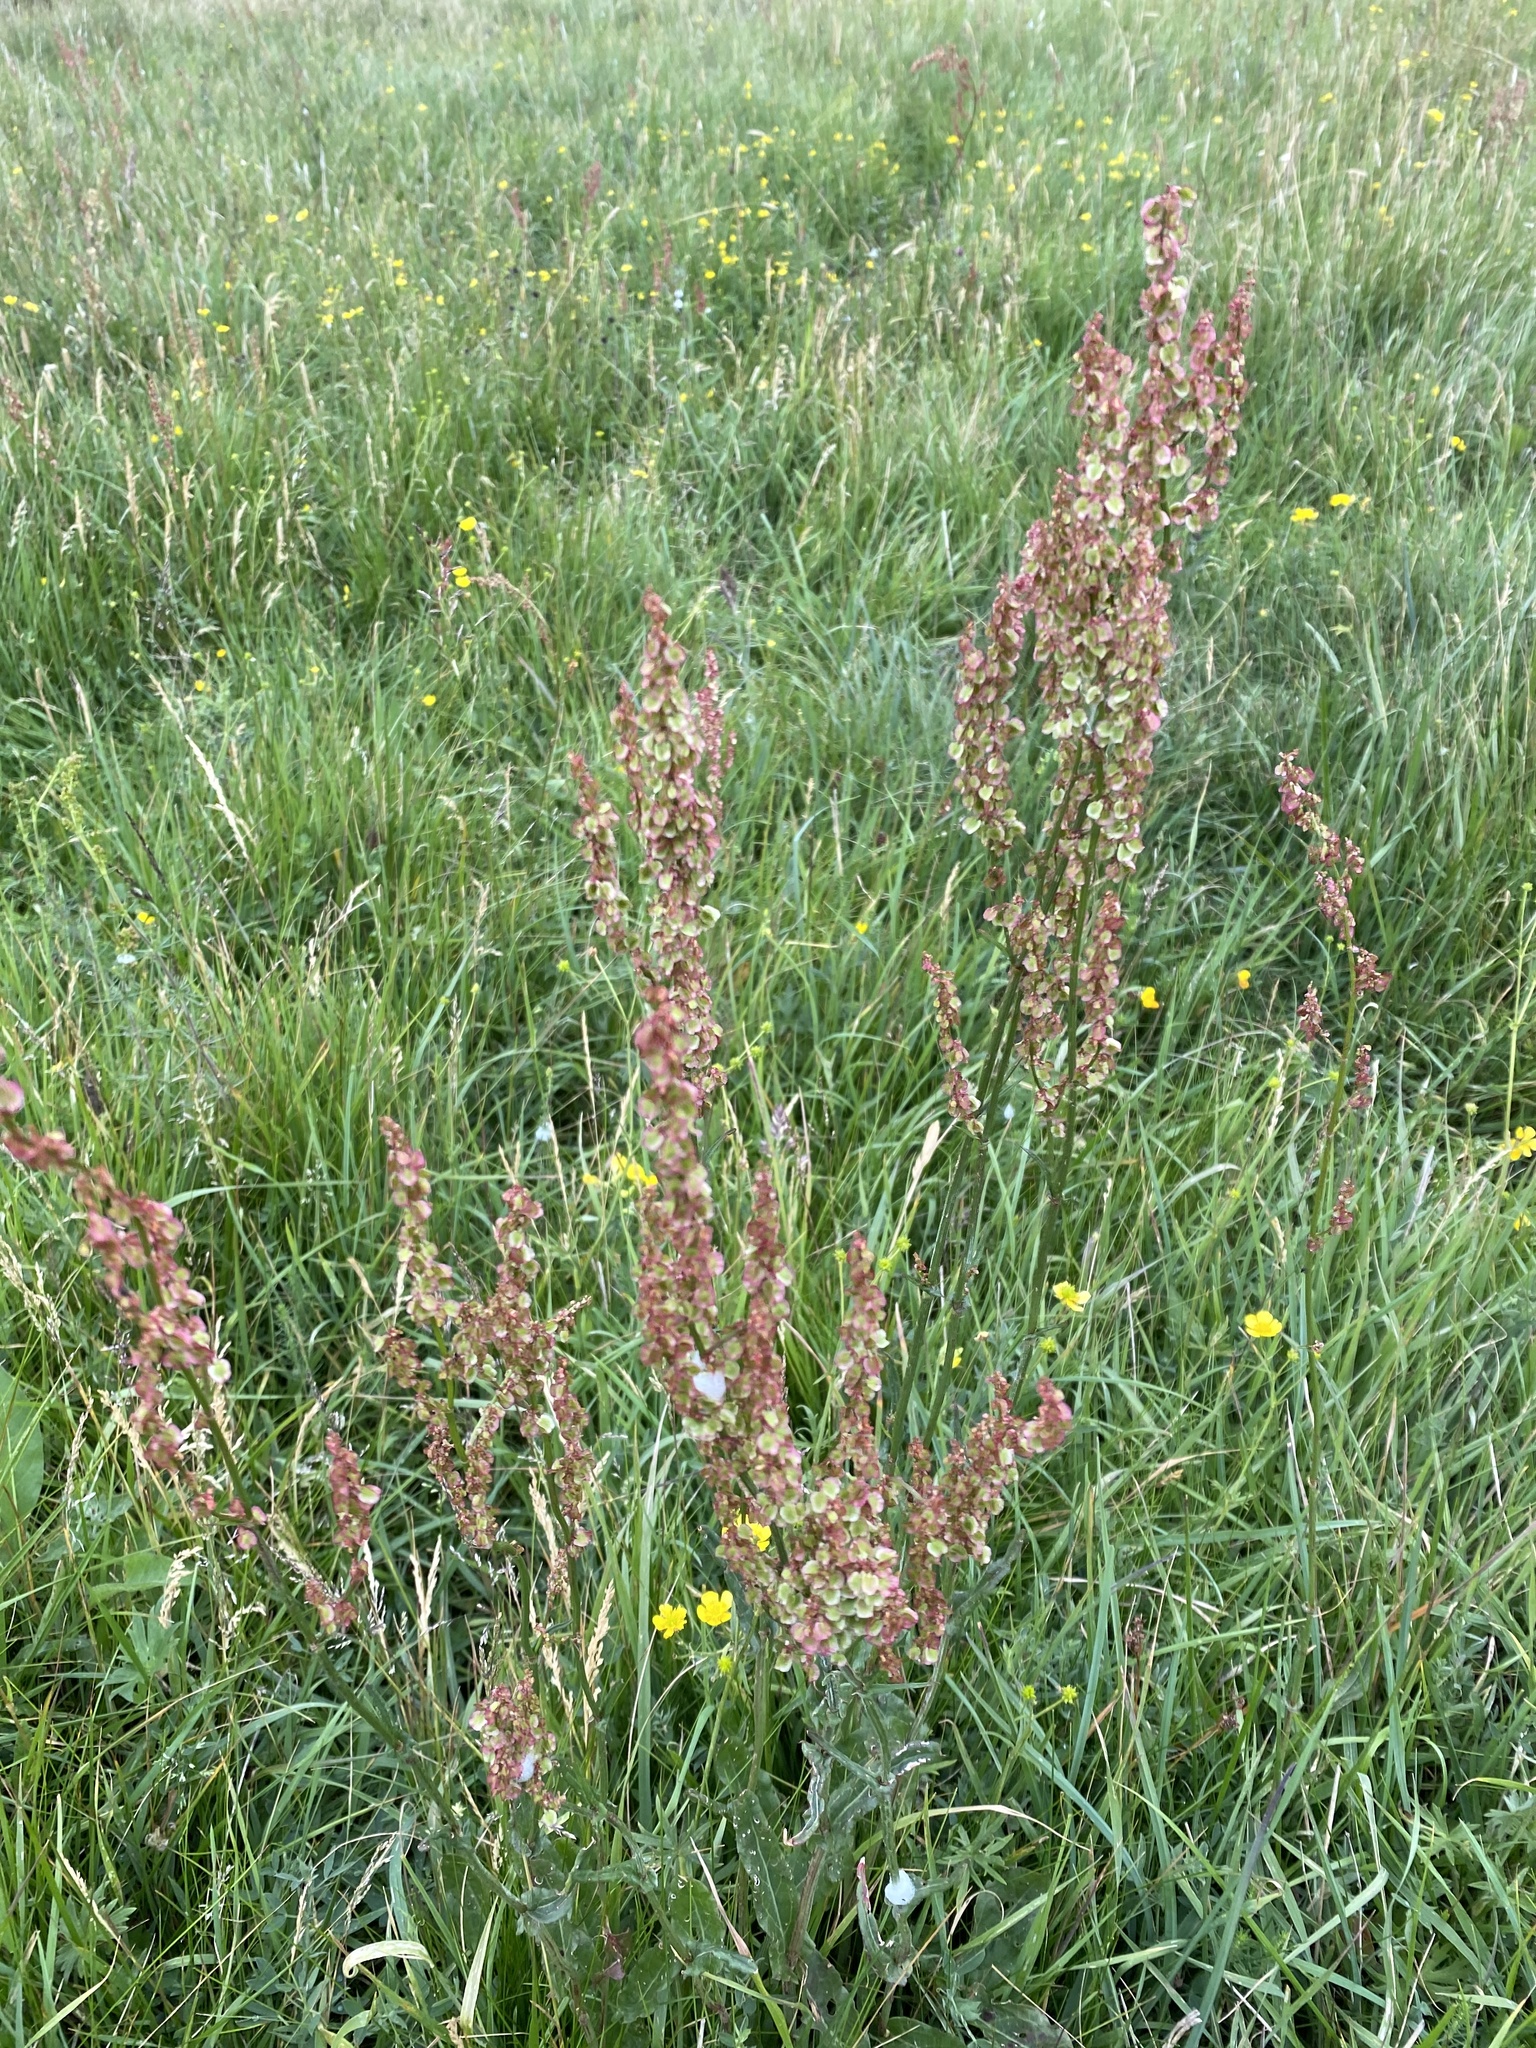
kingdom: Plantae
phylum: Tracheophyta
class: Magnoliopsida
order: Caryophyllales
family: Polygonaceae
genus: Rumex
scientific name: Rumex acetosa
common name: Garden sorrel
